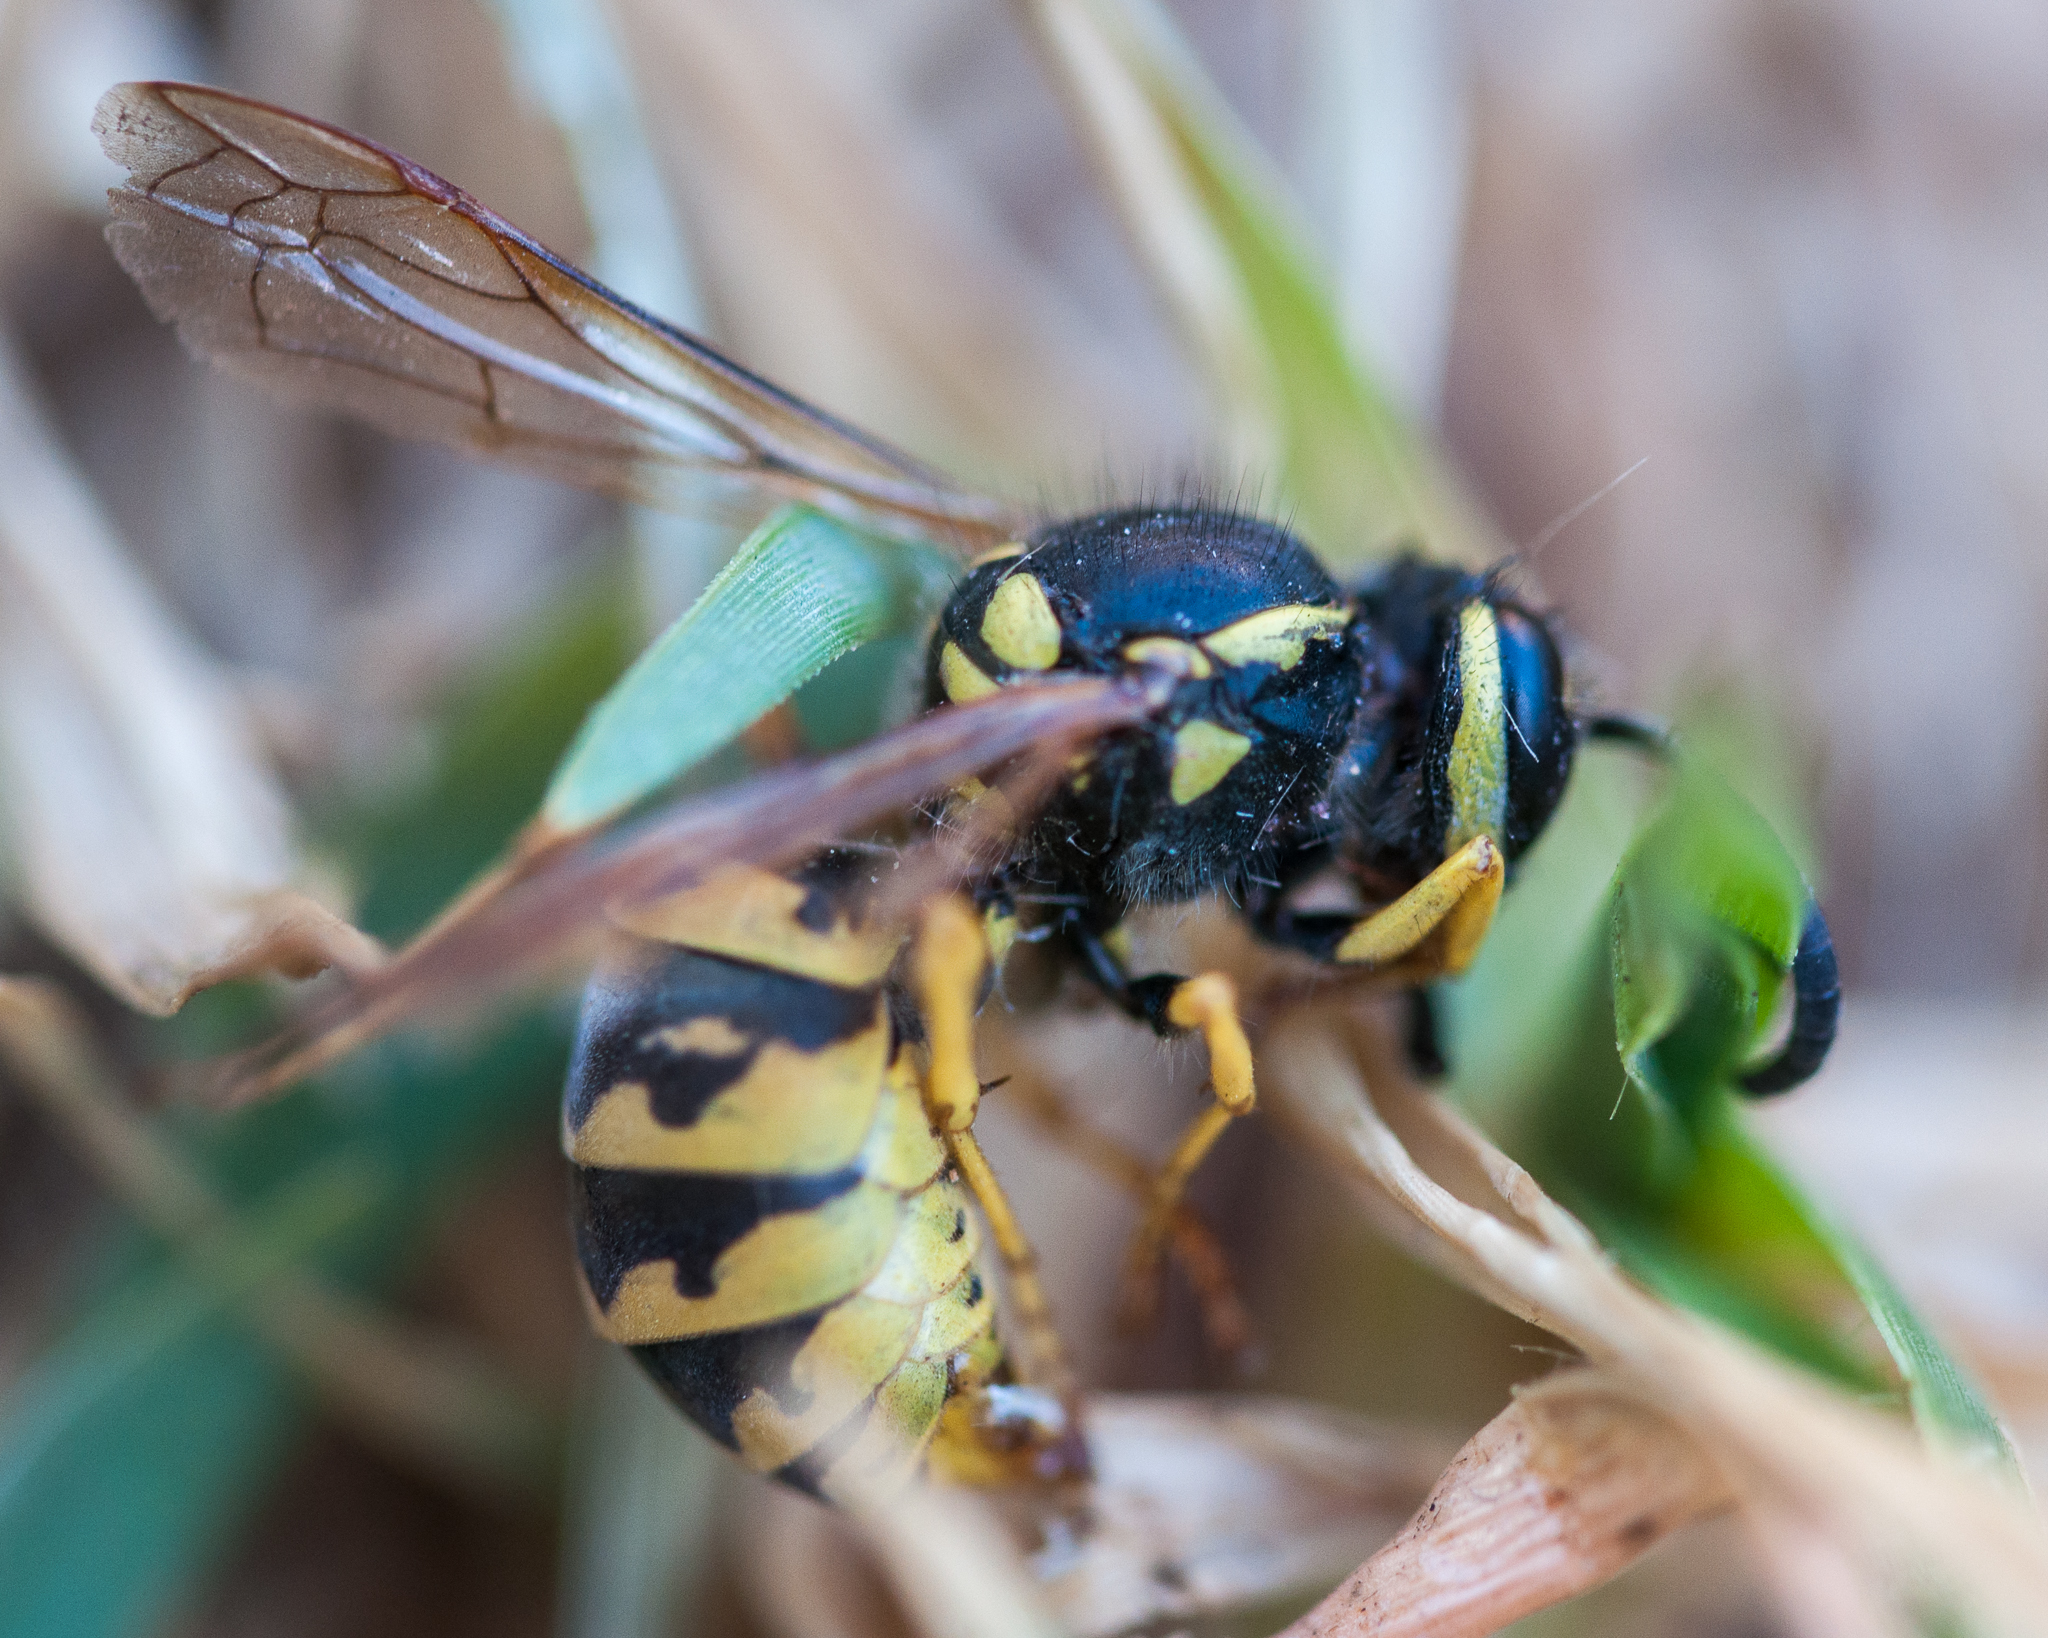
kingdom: Animalia
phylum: Arthropoda
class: Insecta
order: Hymenoptera
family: Vespidae
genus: Vespula
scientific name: Vespula germanica
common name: German wasp
